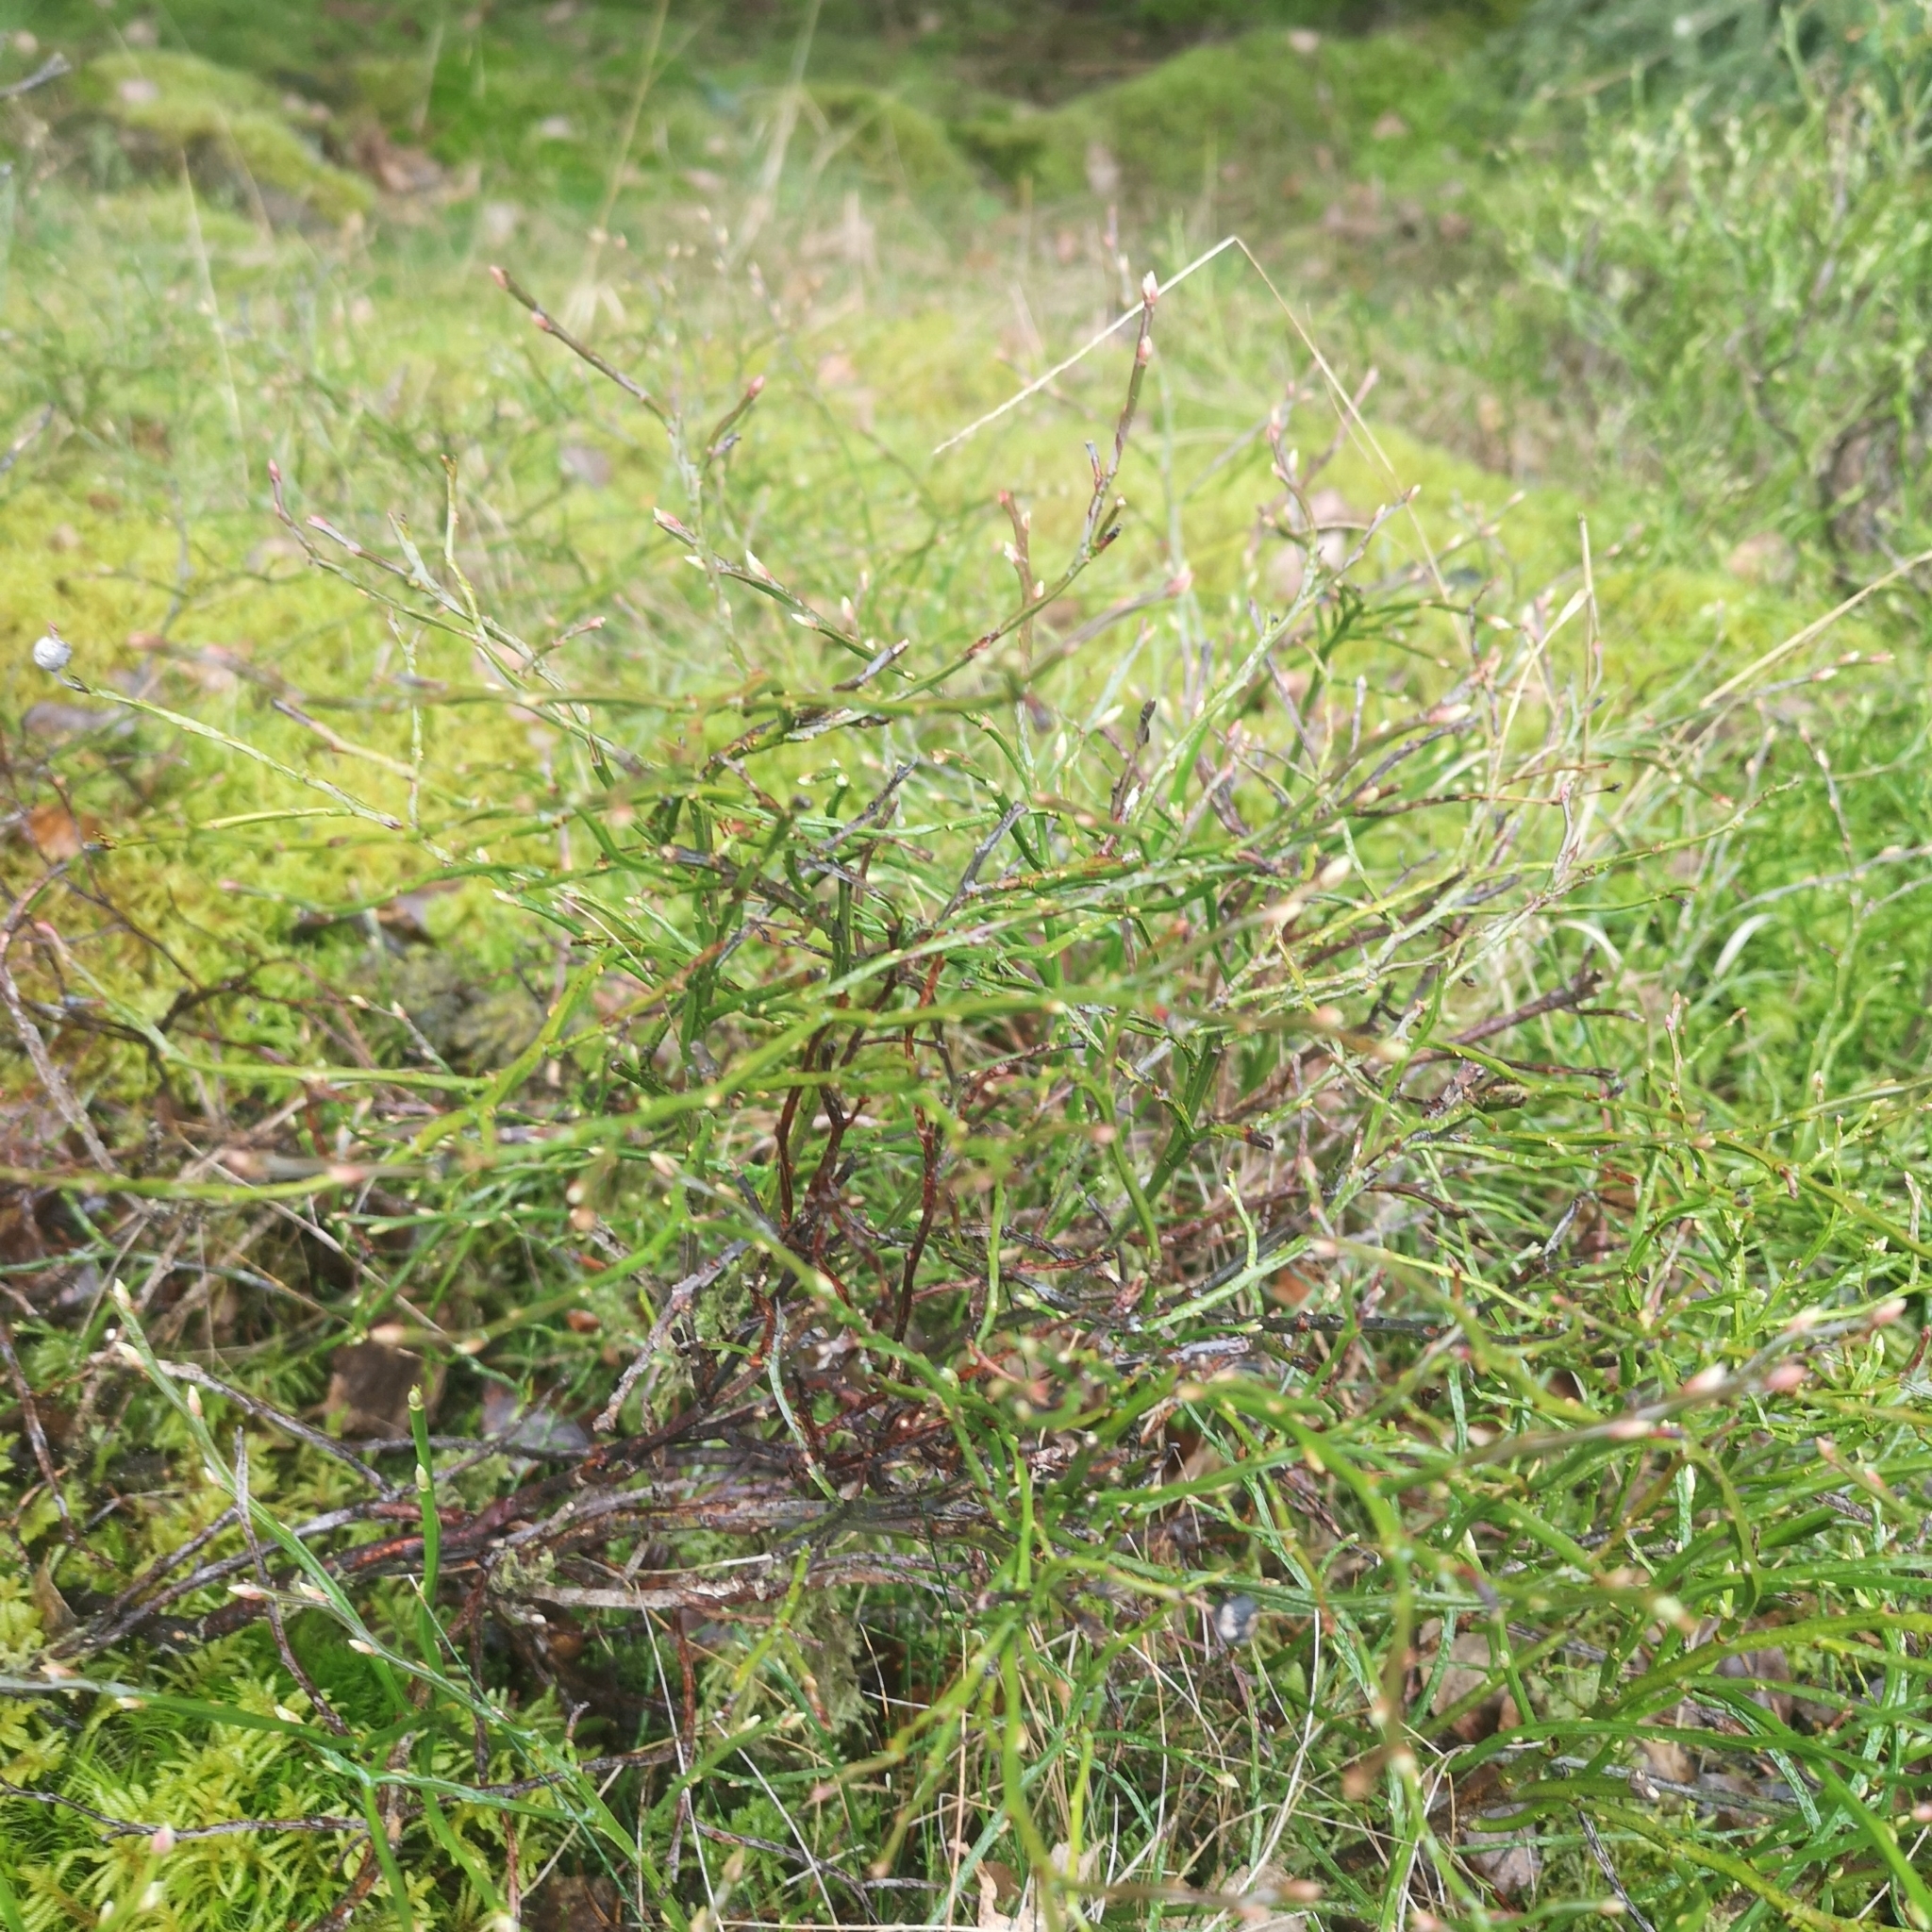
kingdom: Plantae
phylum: Tracheophyta
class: Magnoliopsida
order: Ericales
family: Ericaceae
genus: Vaccinium
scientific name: Vaccinium myrtillus
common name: Bilberry
